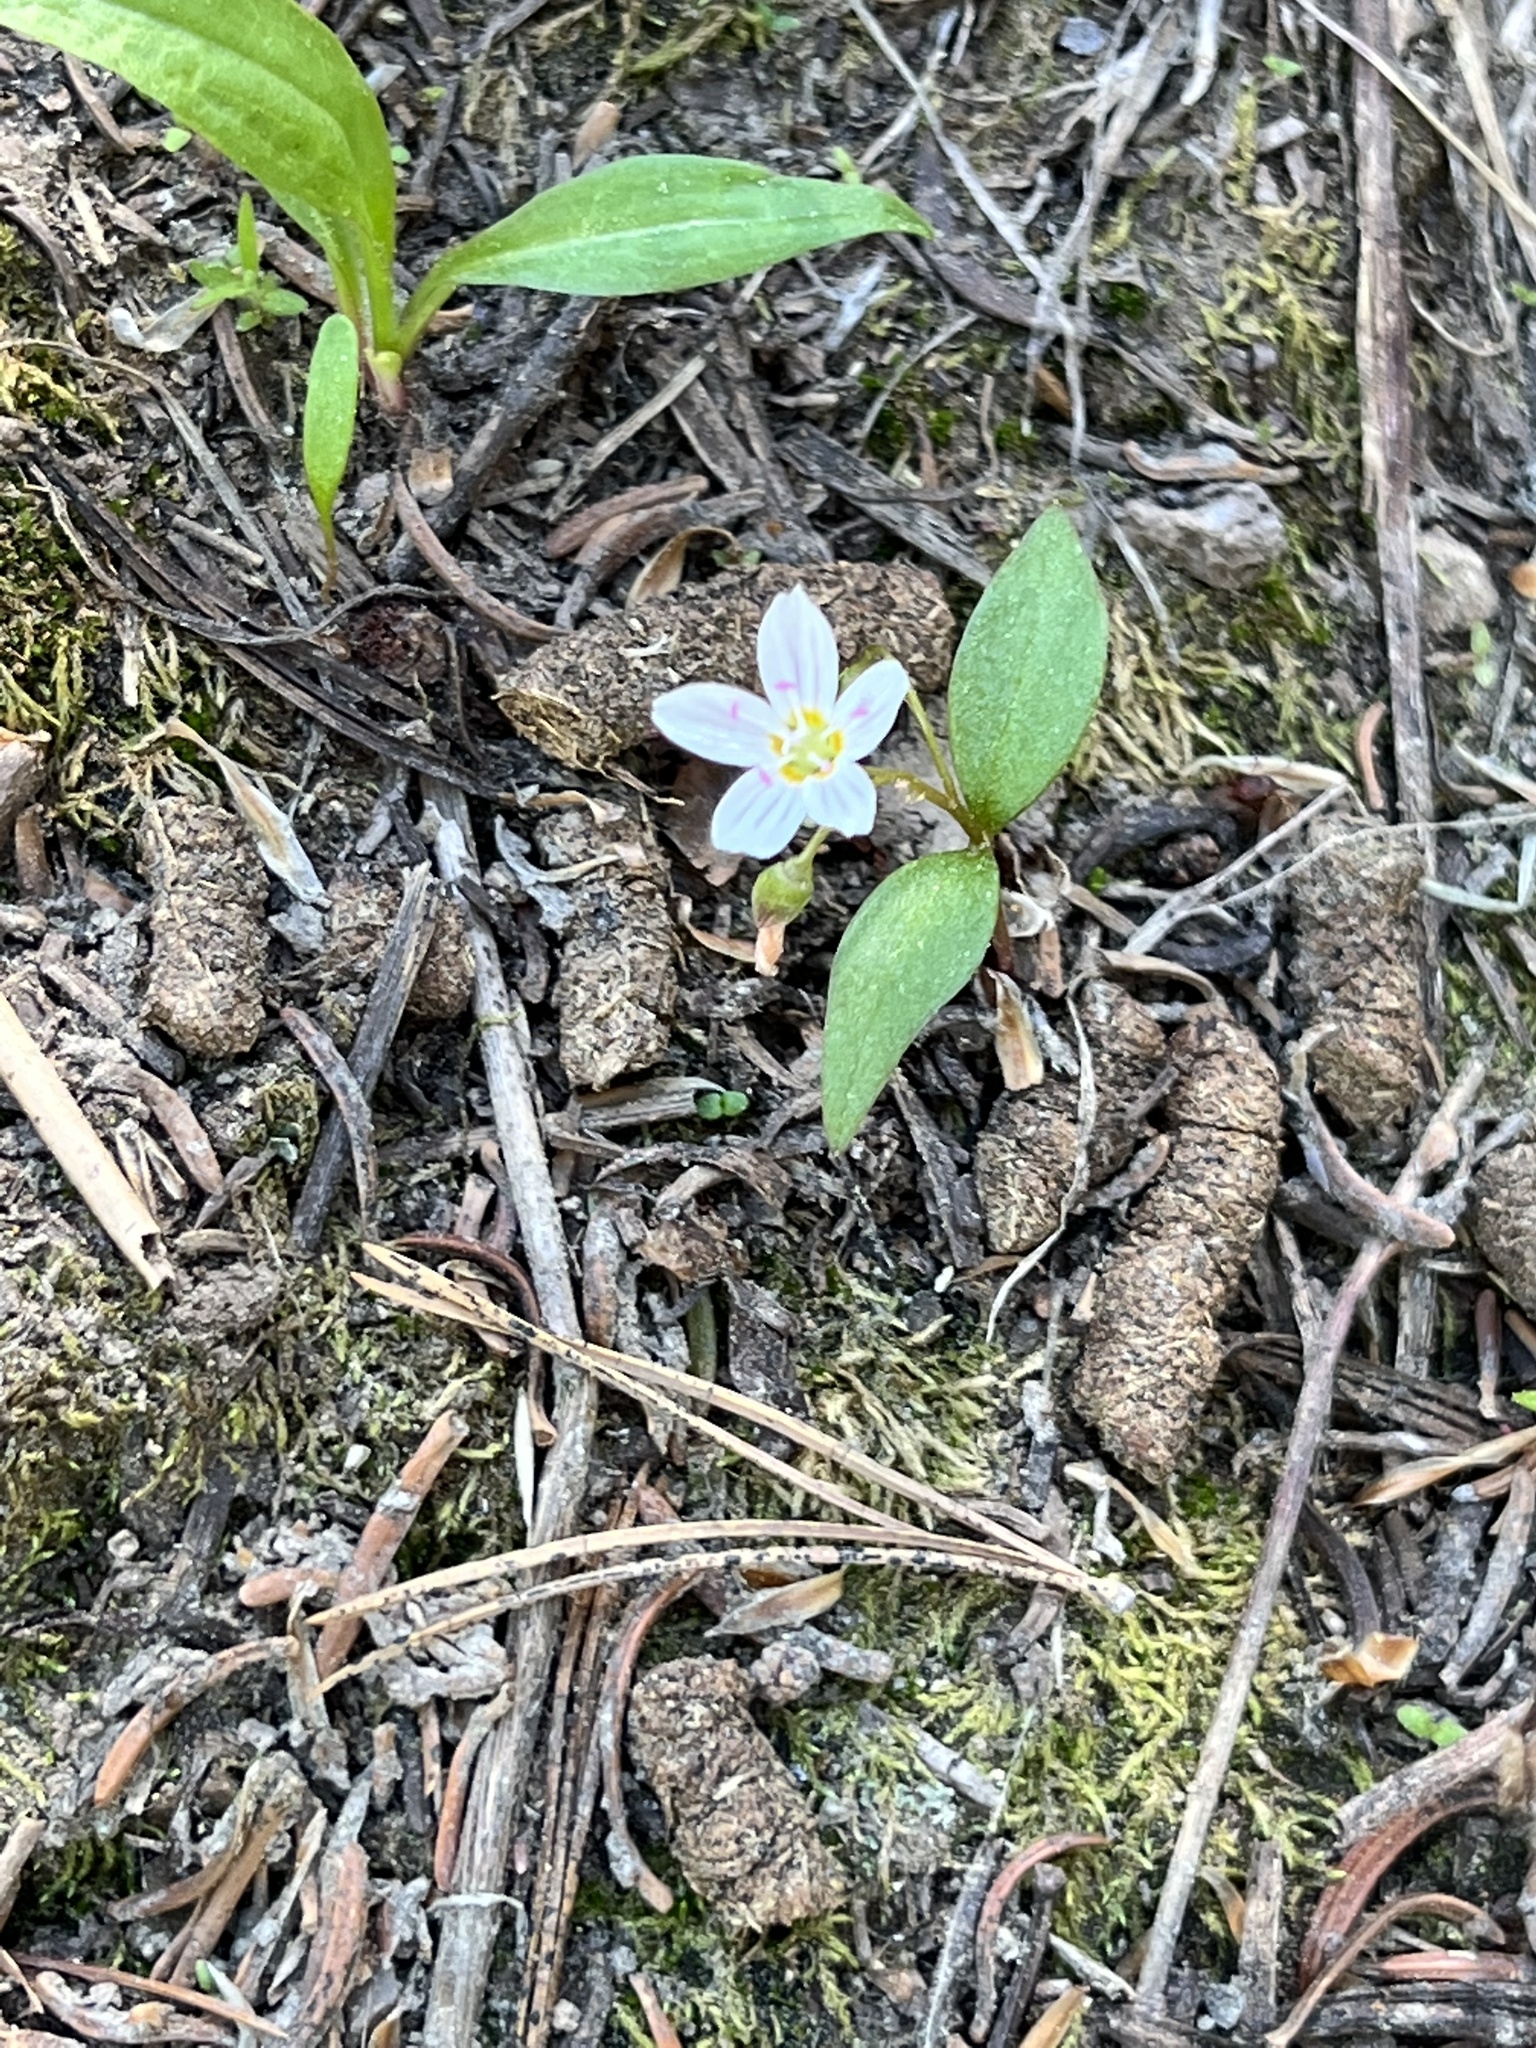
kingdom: Plantae
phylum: Tracheophyta
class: Magnoliopsida
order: Caryophyllales
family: Montiaceae
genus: Claytonia
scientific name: Claytonia lanceolata
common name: Western spring-beauty
